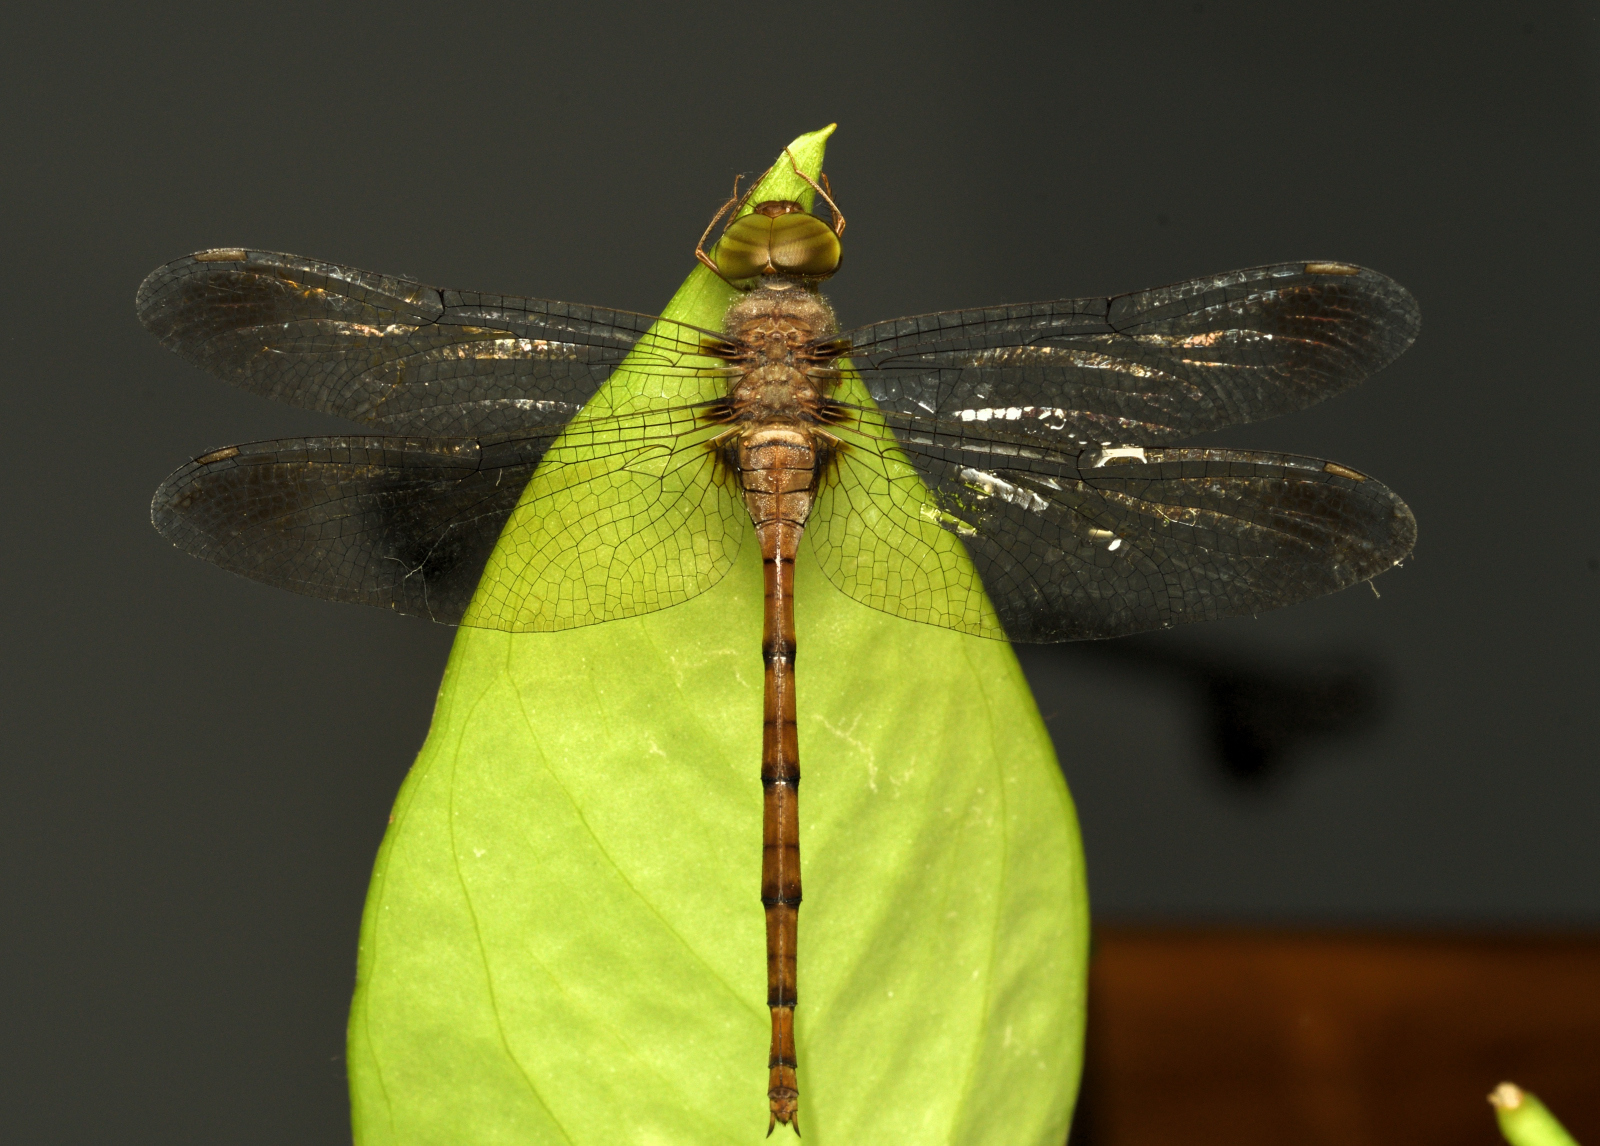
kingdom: Animalia
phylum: Arthropoda
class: Insecta
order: Odonata
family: Libellulidae
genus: Zyxomma
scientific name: Zyxomma petiolatum
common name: Dingy dusk-darter
